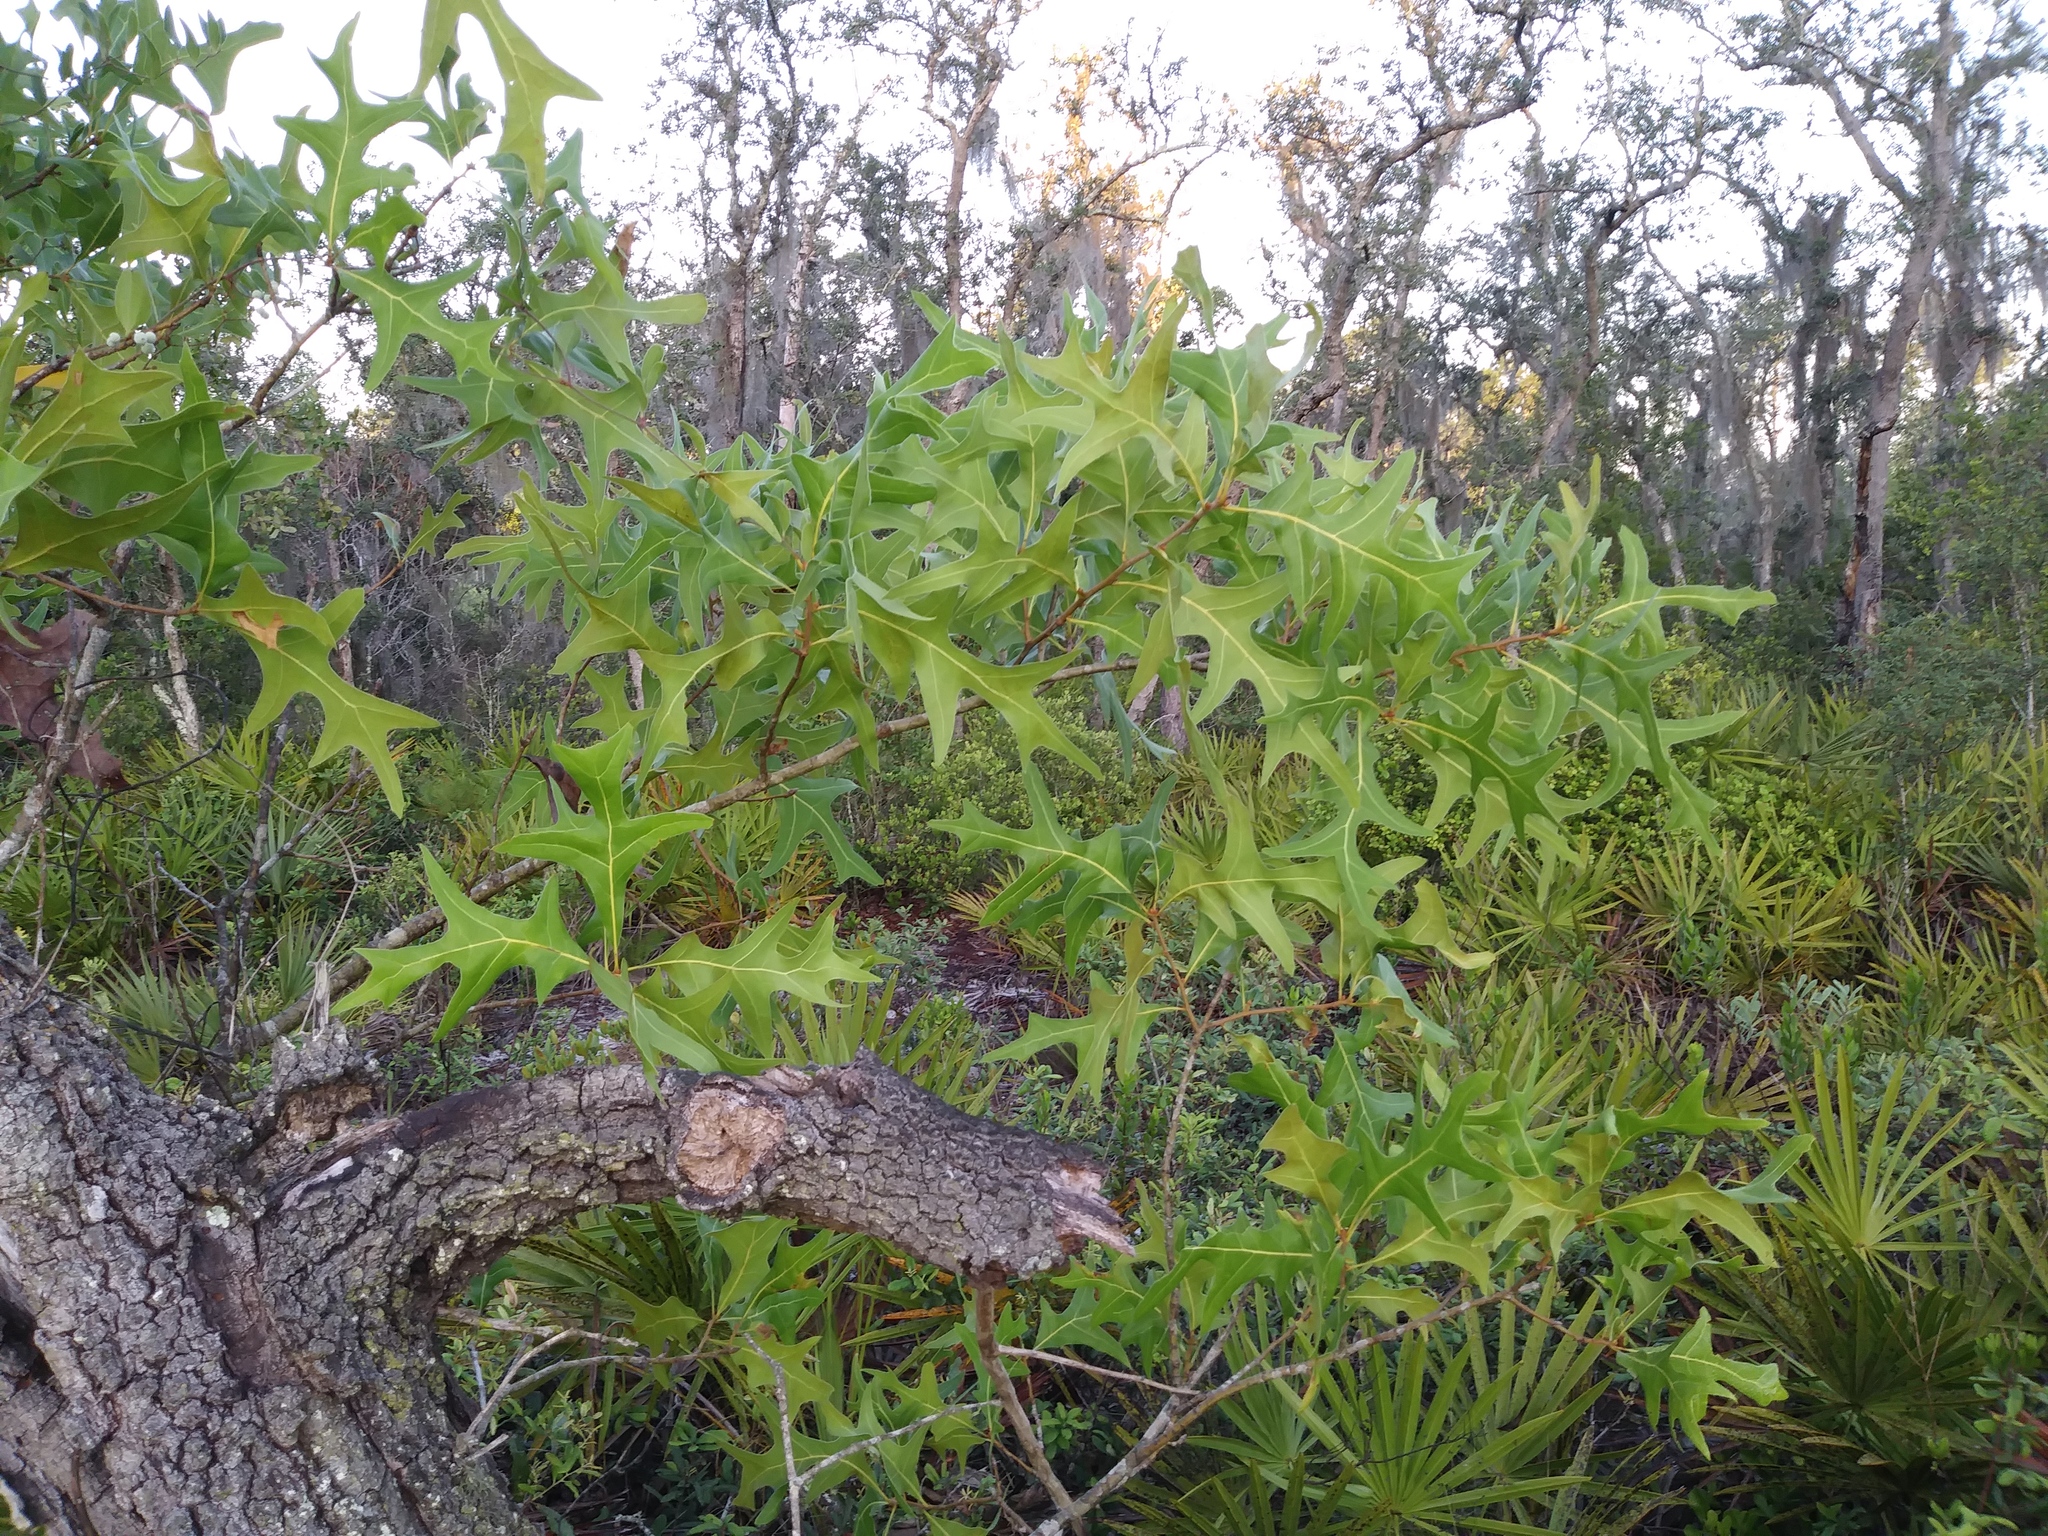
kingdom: Plantae
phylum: Tracheophyta
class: Magnoliopsida
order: Fagales
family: Fagaceae
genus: Quercus
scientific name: Quercus laevis
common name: Turkey oak
